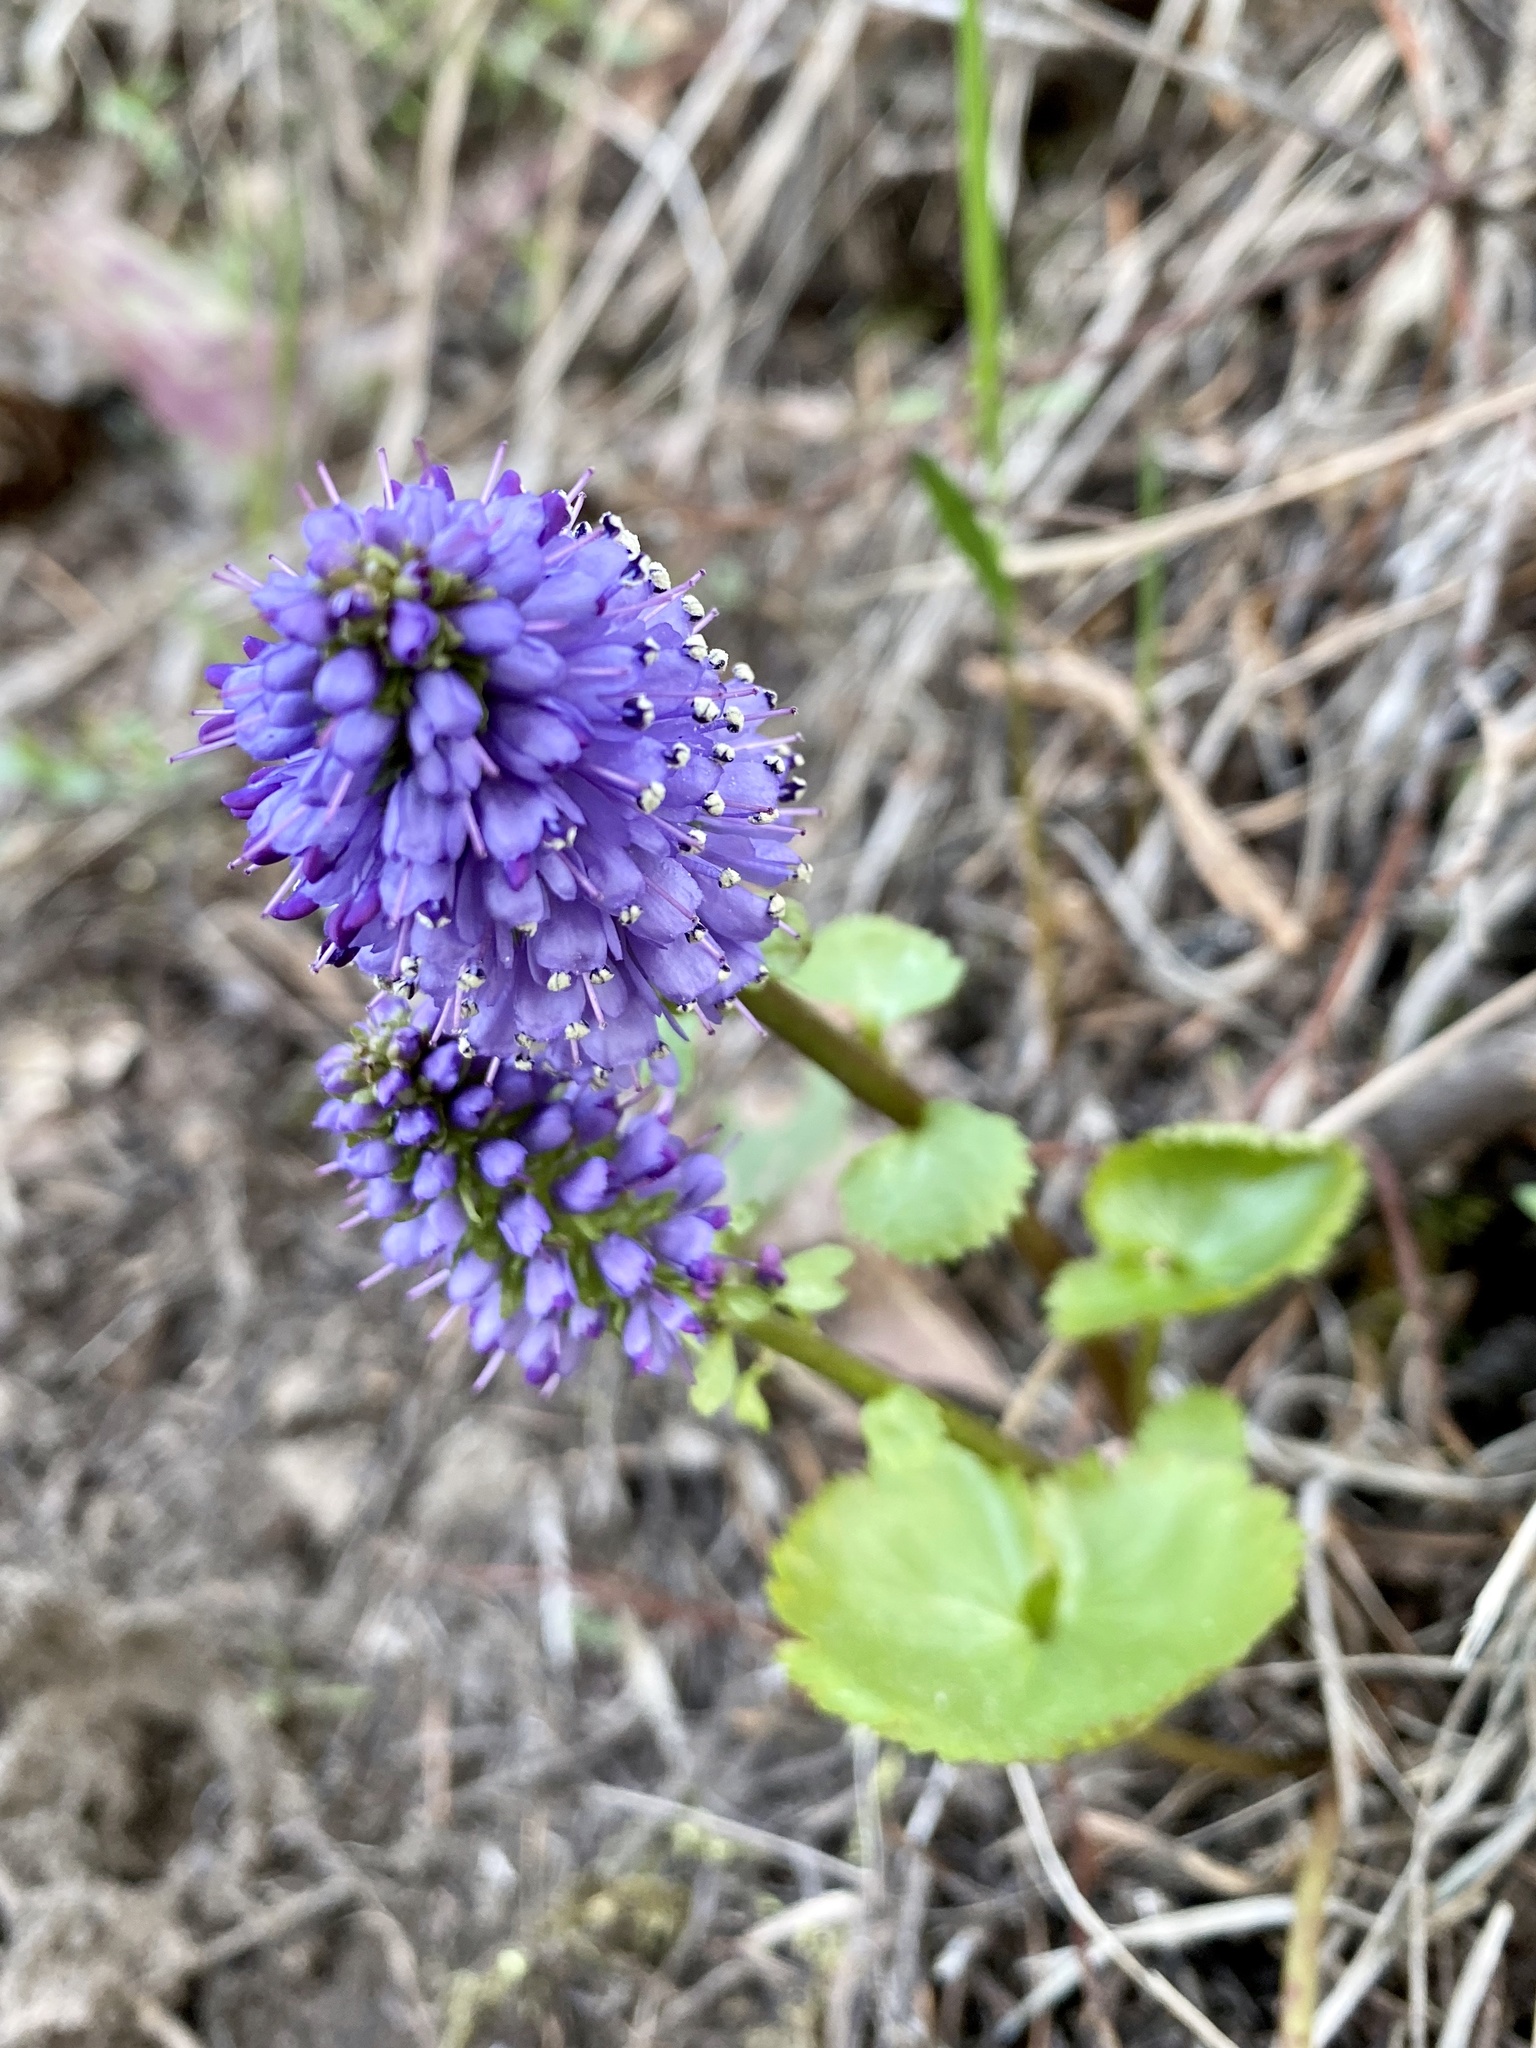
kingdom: Plantae
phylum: Tracheophyta
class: Magnoliopsida
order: Lamiales
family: Plantaginaceae
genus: Synthyris
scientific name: Synthyris missurica
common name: Kitten-tails
